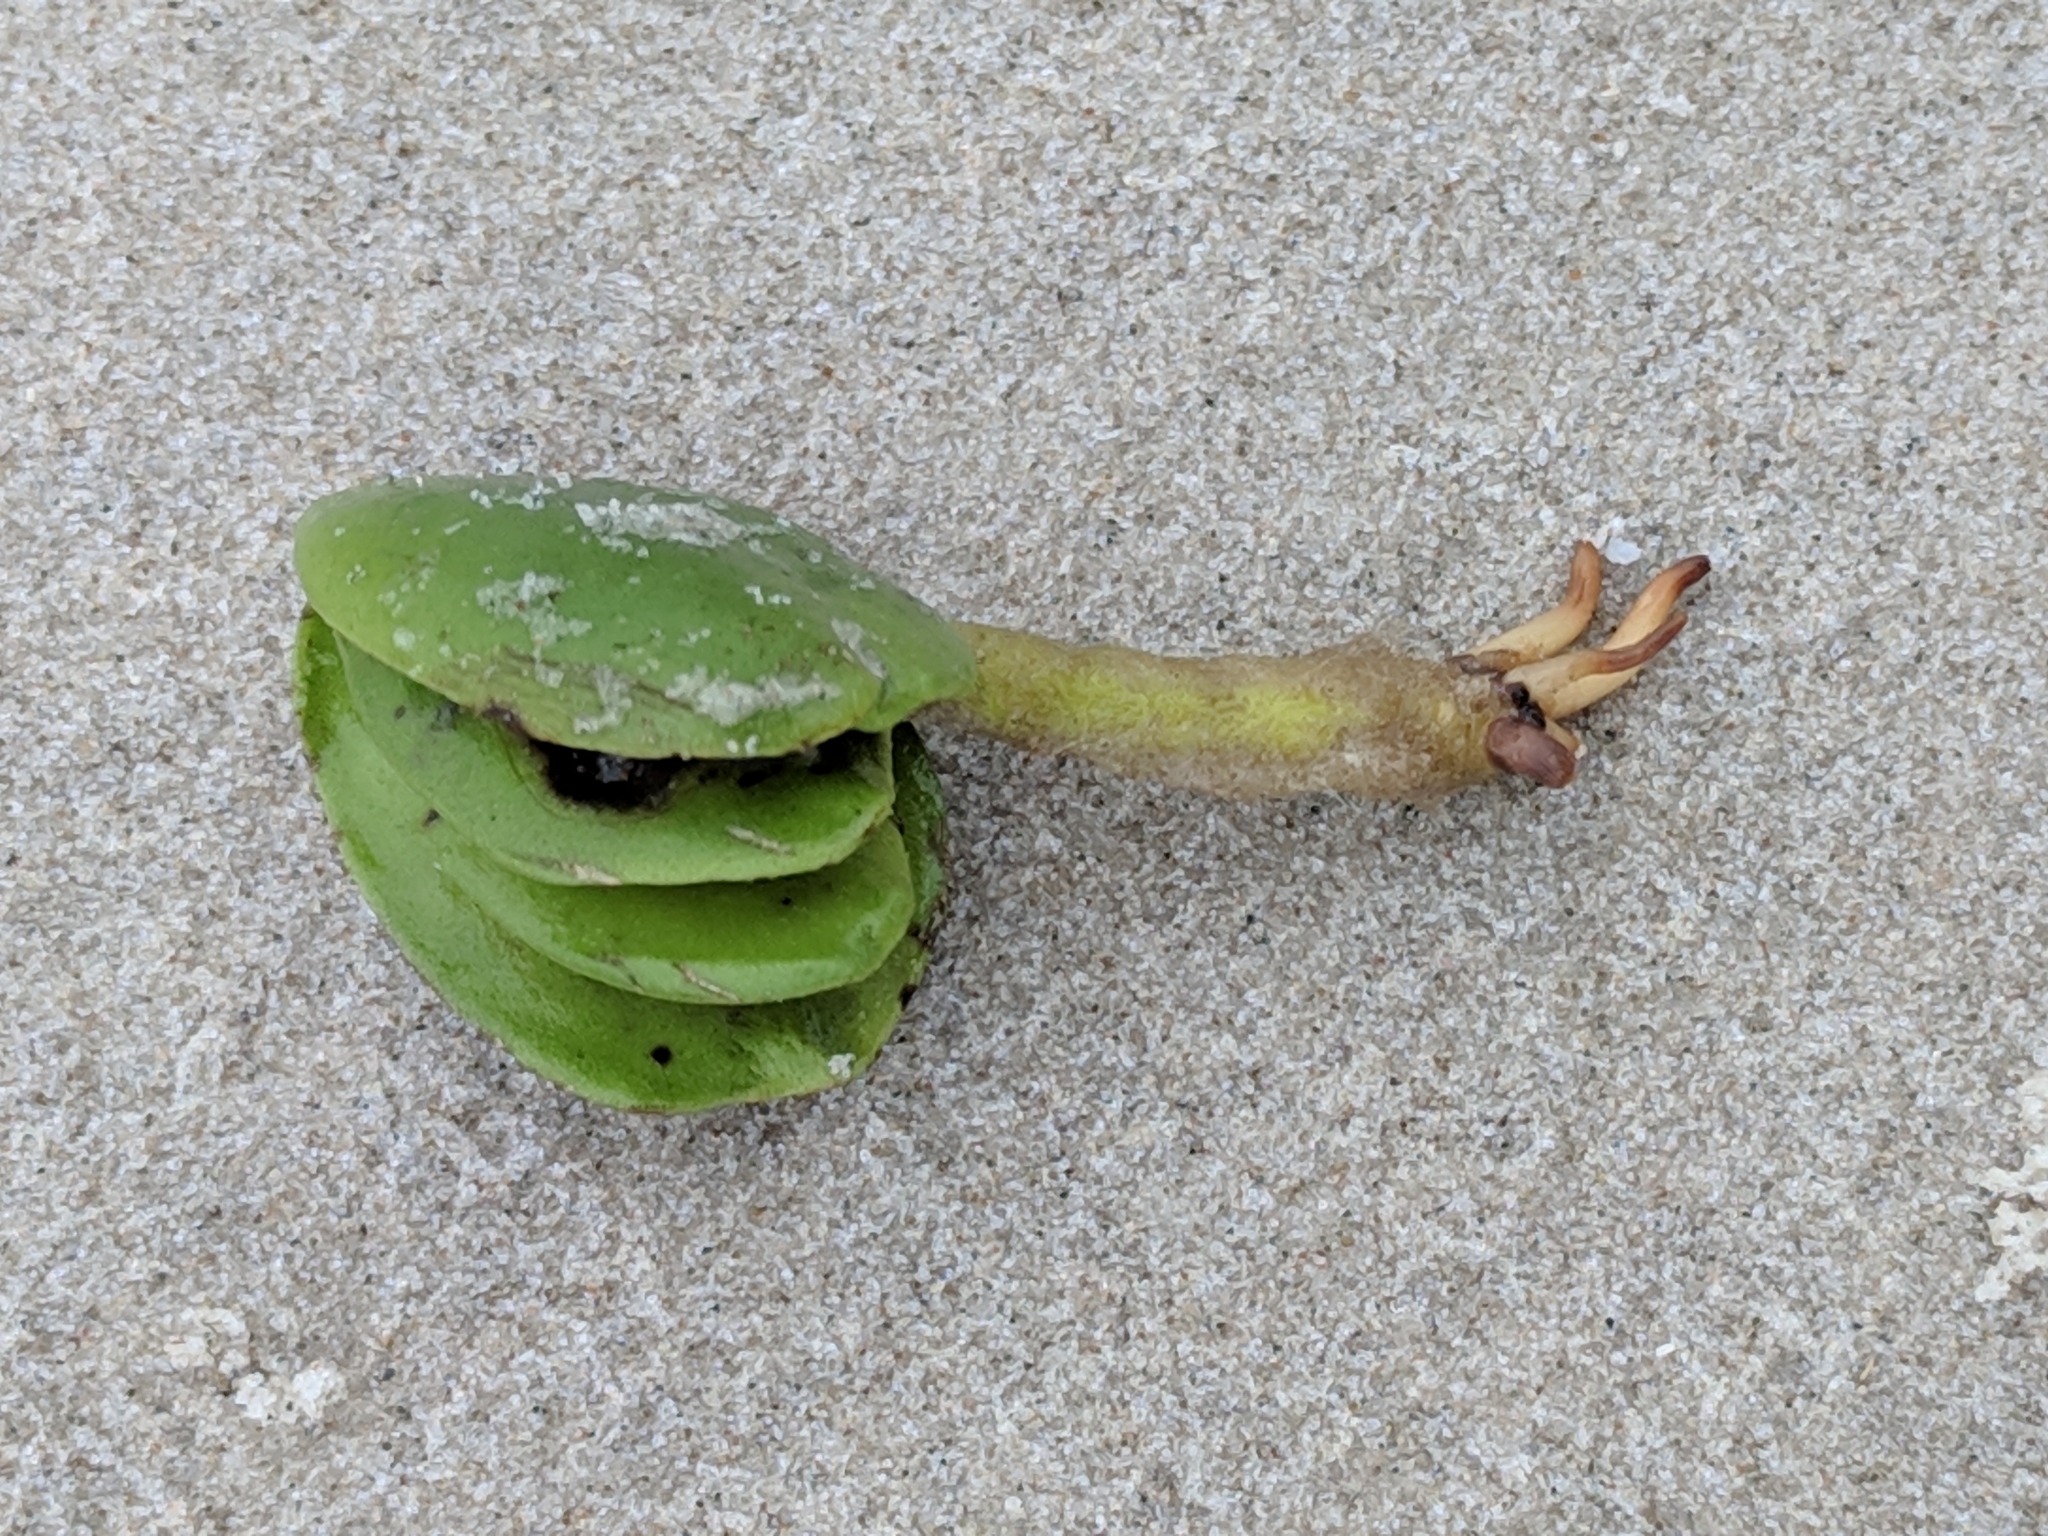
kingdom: Plantae
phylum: Tracheophyta
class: Magnoliopsida
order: Lamiales
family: Acanthaceae
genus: Avicennia
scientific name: Avicennia germinans
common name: Black mangrove
